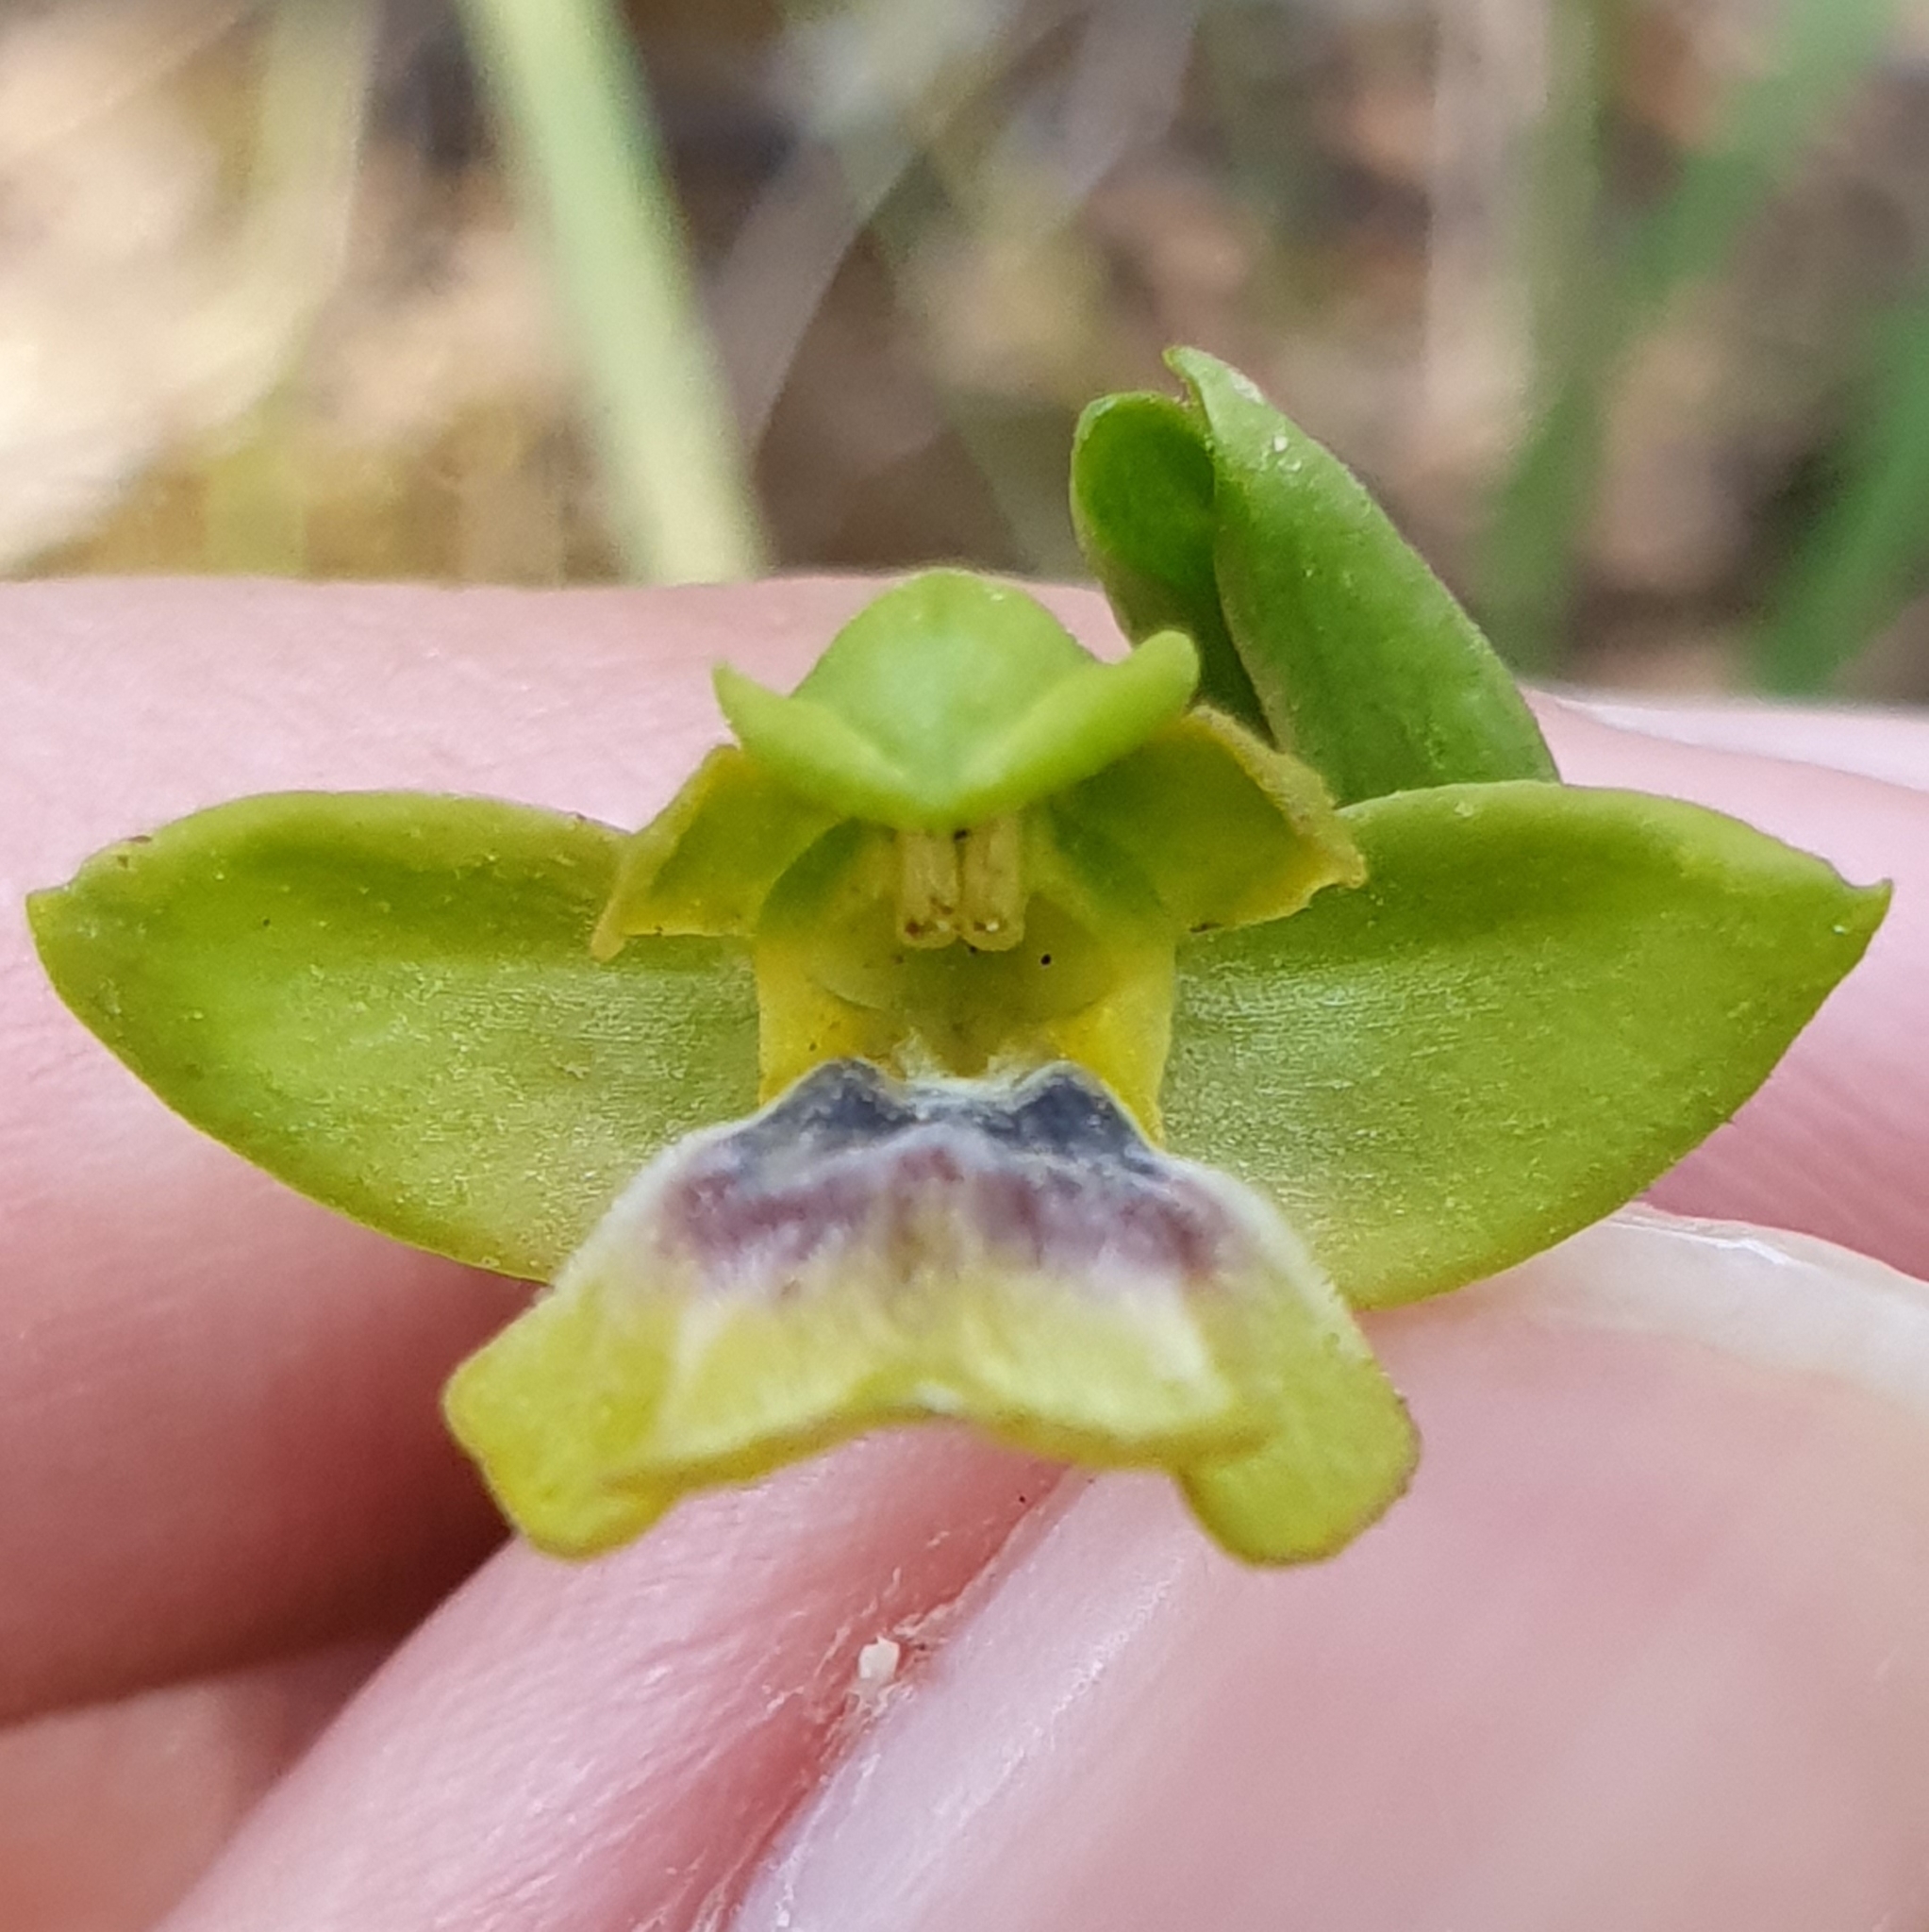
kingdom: Plantae
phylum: Tracheophyta
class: Liliopsida
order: Asparagales
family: Orchidaceae
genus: Ophrys
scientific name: Ophrys battandieri
